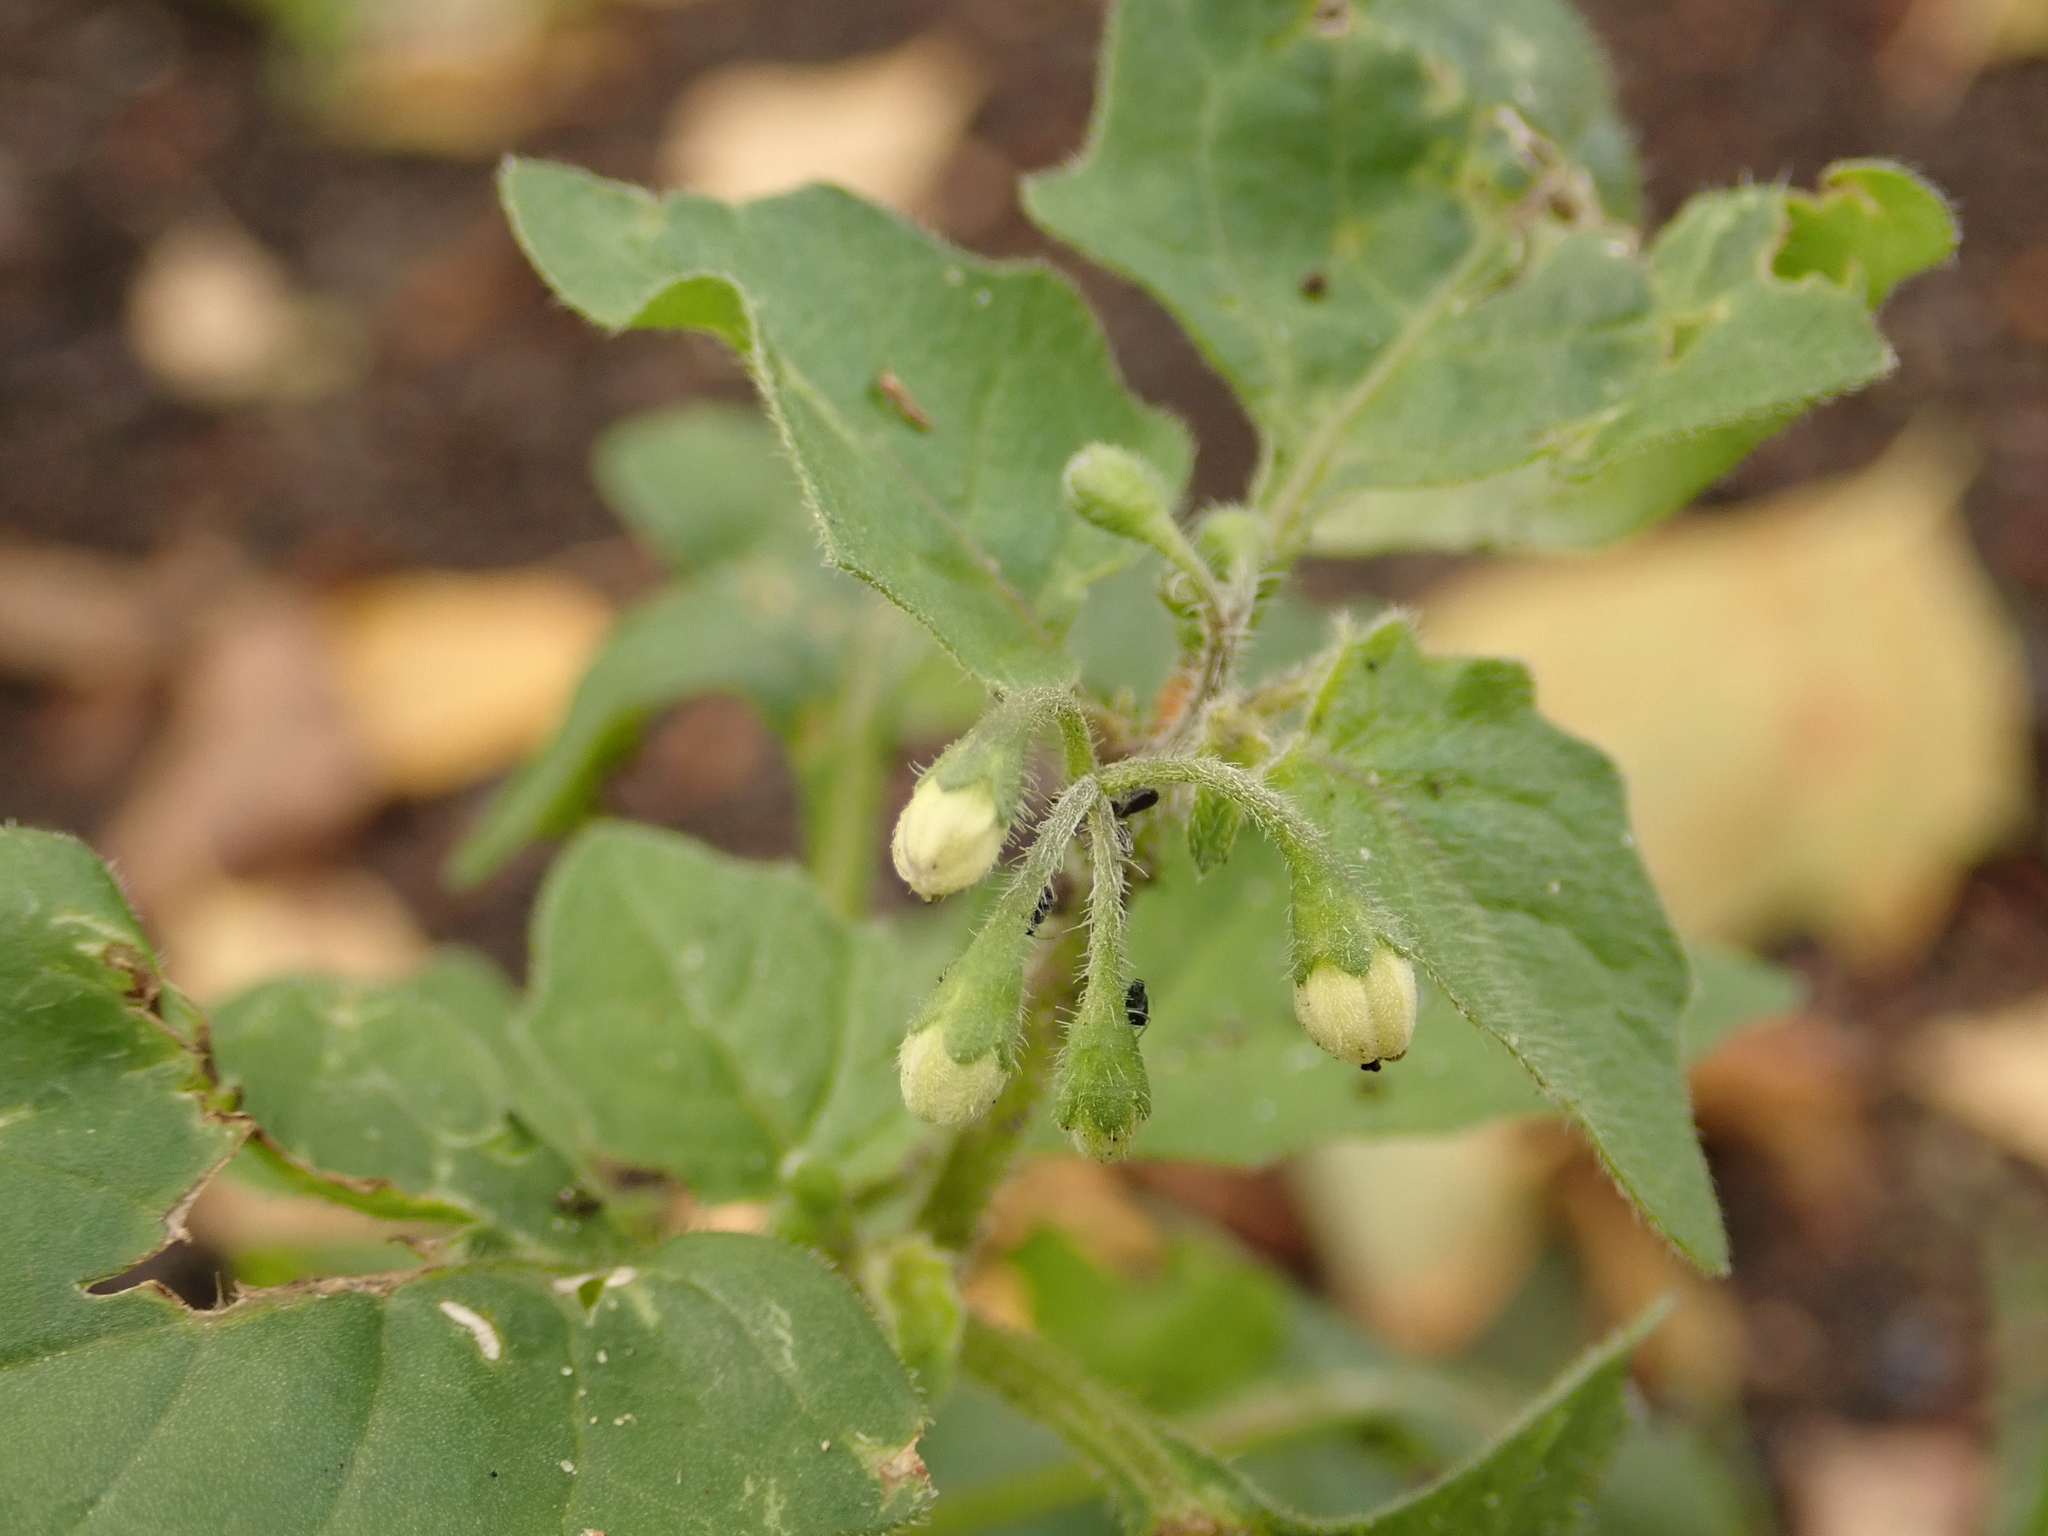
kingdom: Plantae
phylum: Tracheophyta
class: Magnoliopsida
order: Solanales
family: Solanaceae
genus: Solanum
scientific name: Solanum nigrum
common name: Black nightshade
